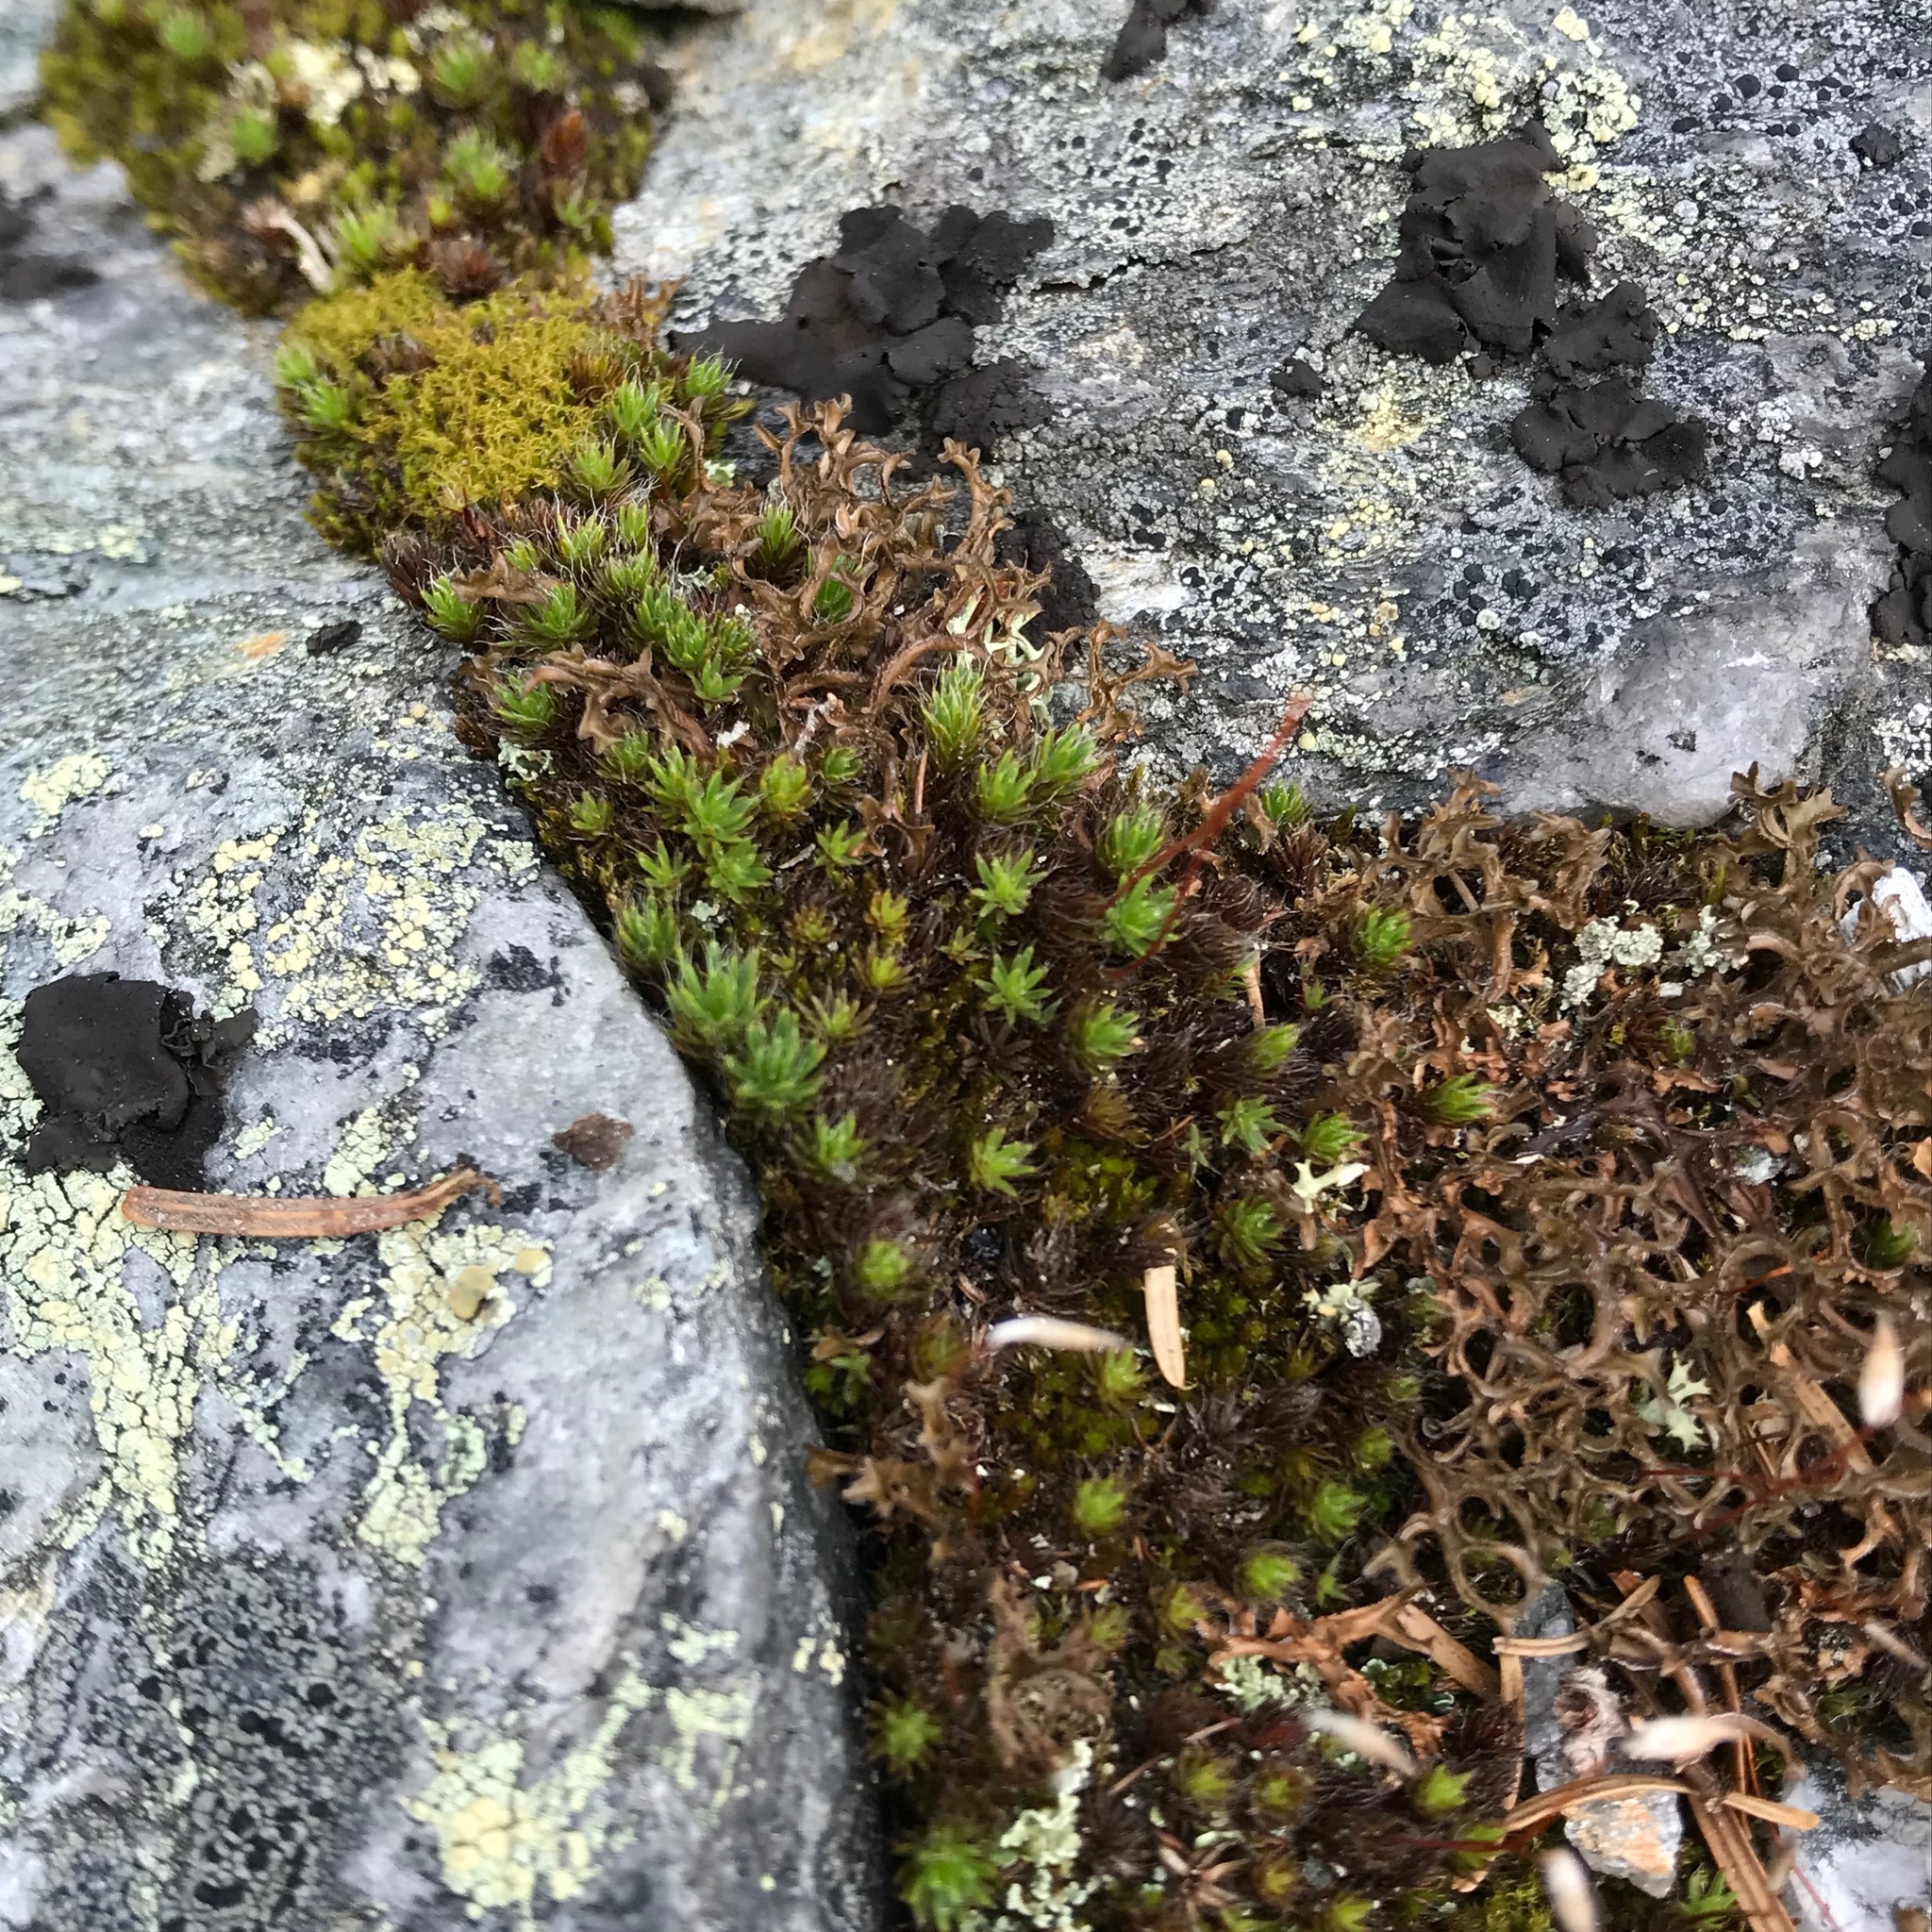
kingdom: Plantae
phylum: Bryophyta
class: Polytrichopsida
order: Polytrichales
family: Polytrichaceae
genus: Polytrichum
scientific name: Polytrichum piliferum
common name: Bristly haircap
